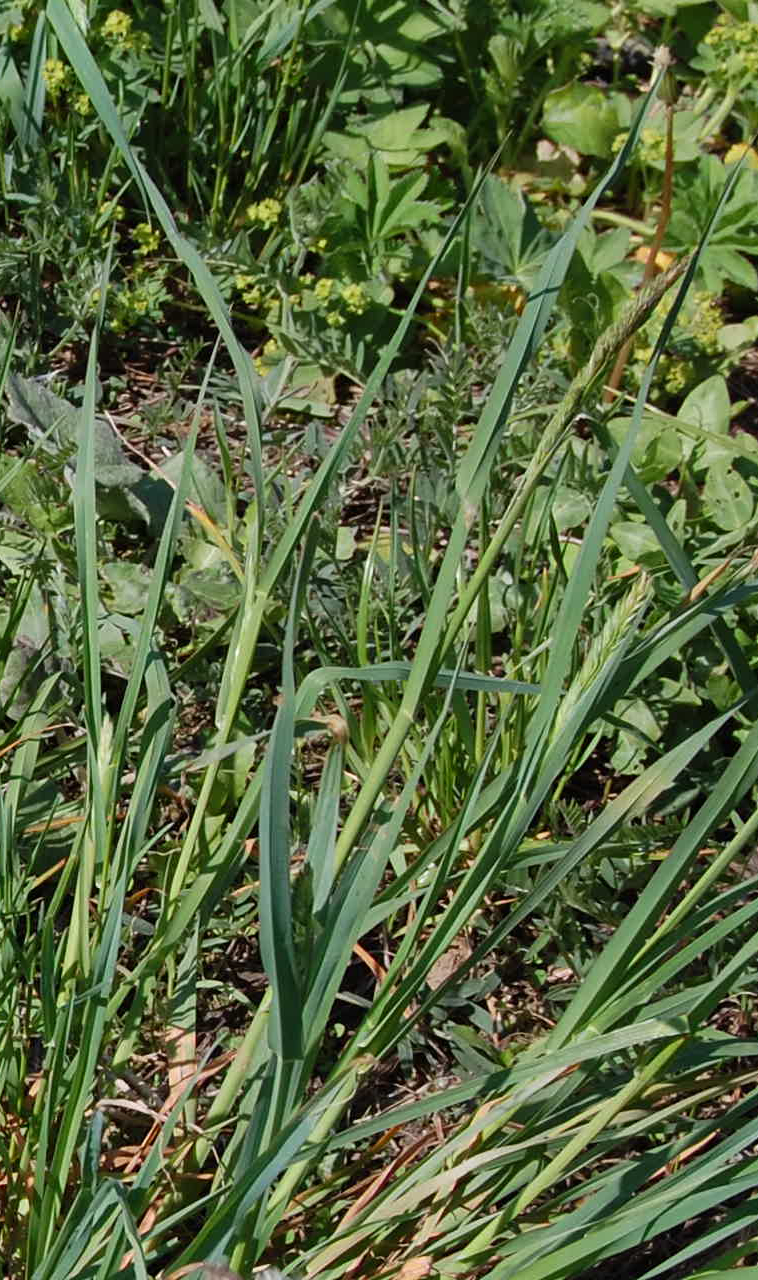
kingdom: Plantae
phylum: Tracheophyta
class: Liliopsida
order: Poales
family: Poaceae
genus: Dactylis
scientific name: Dactylis glomerata
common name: Orchardgrass
